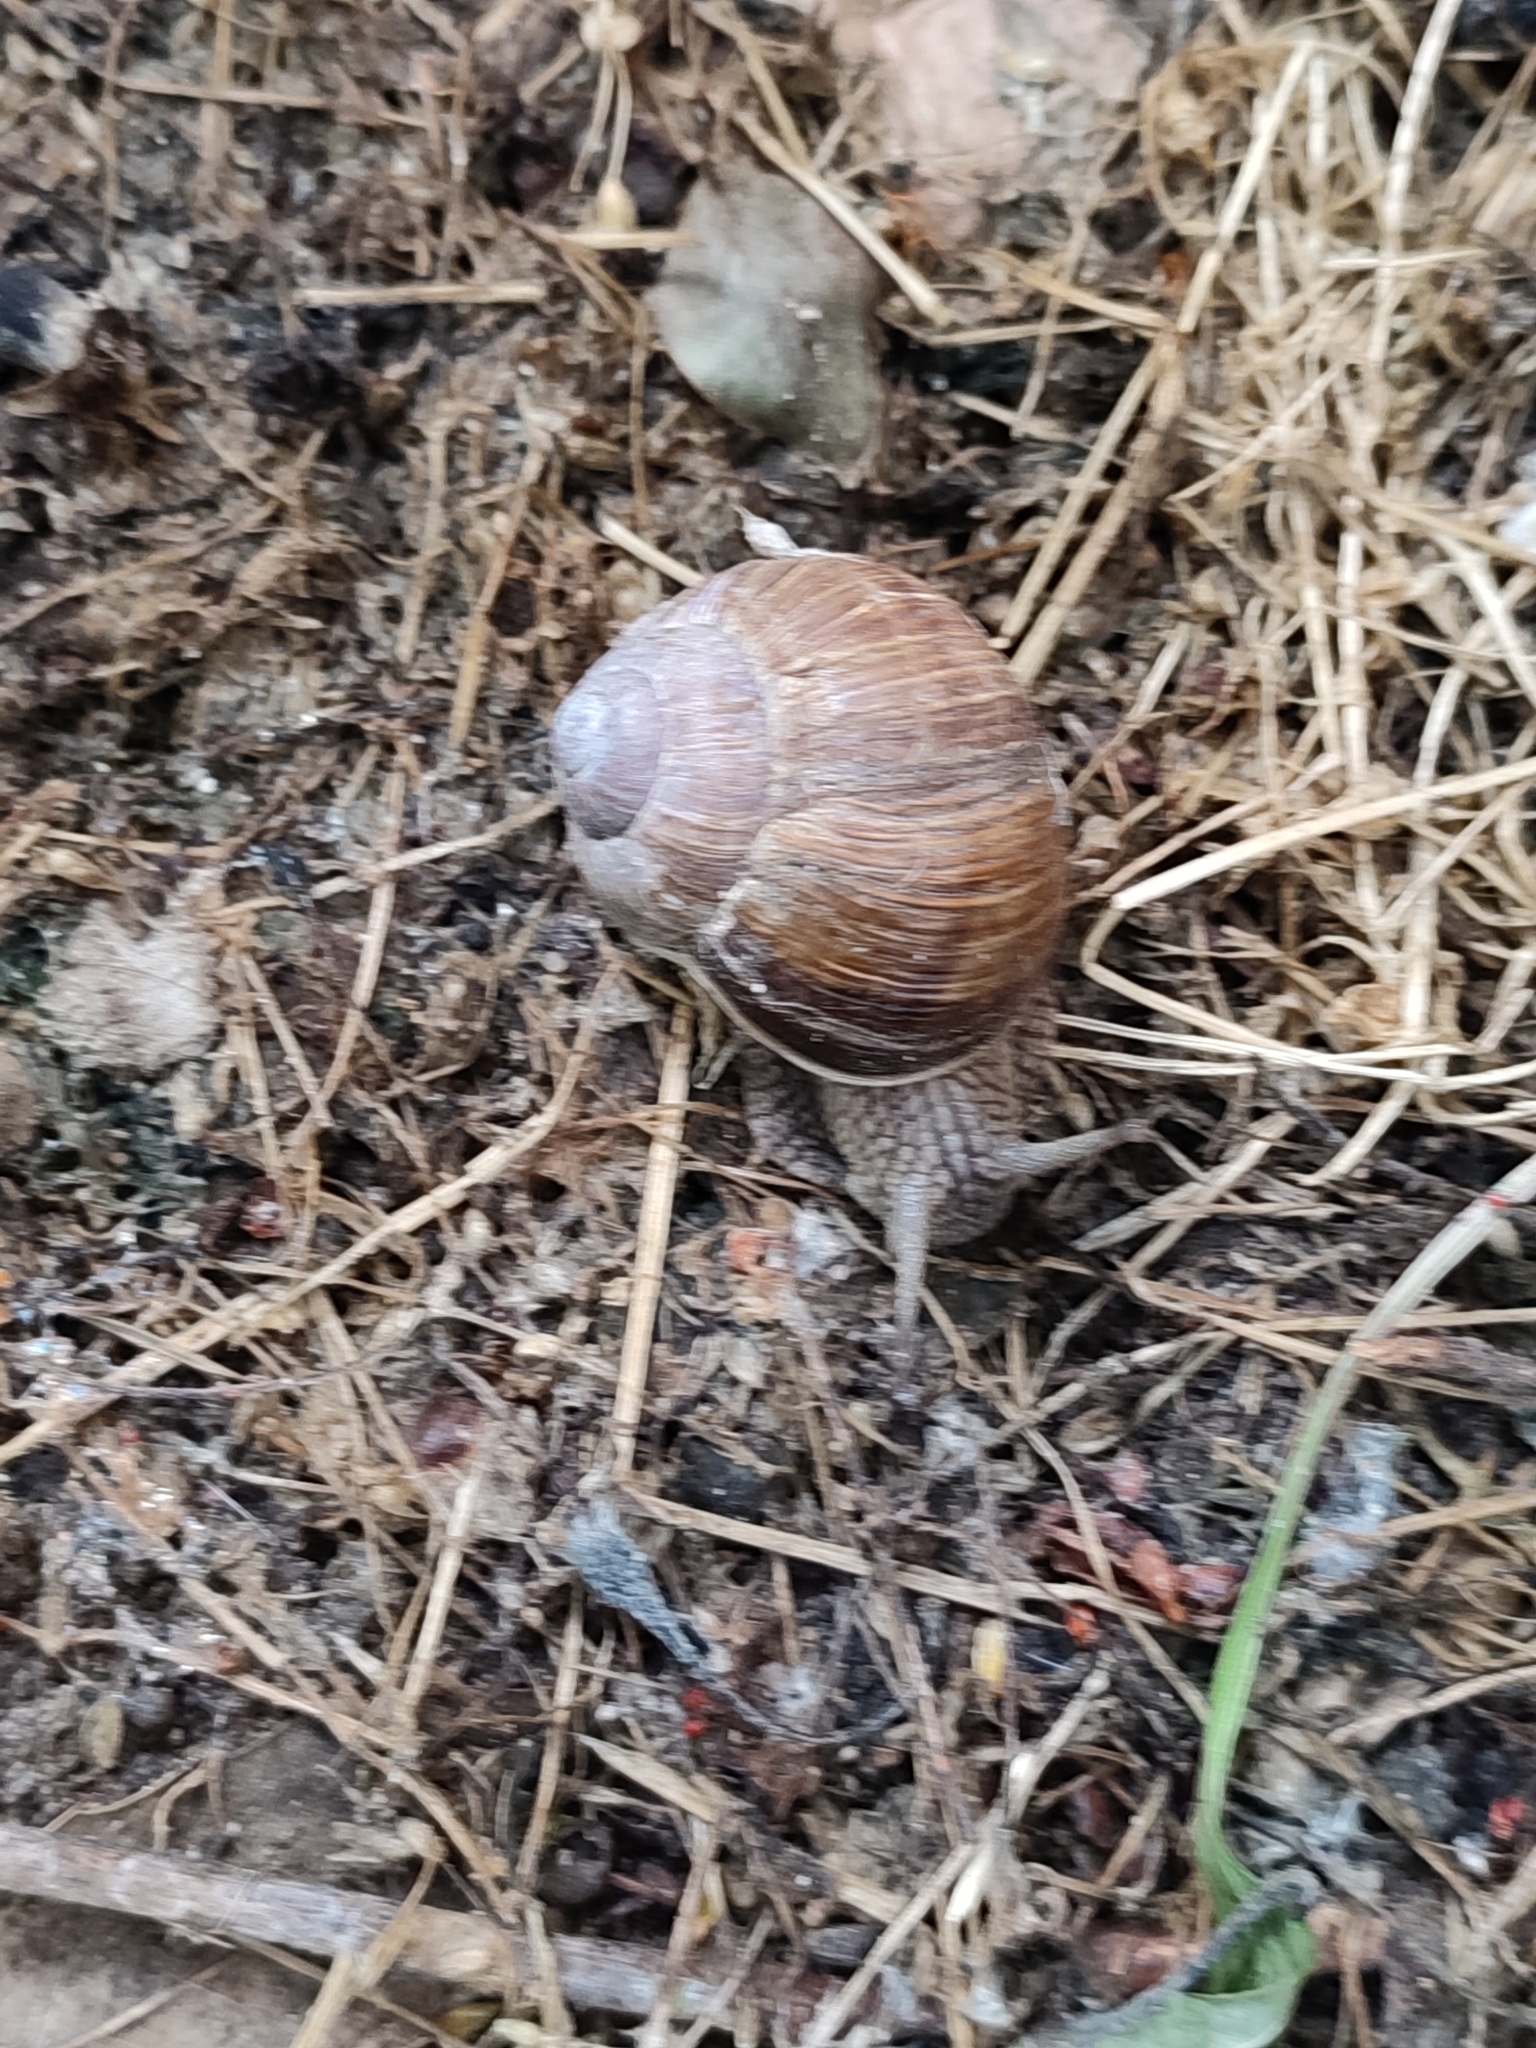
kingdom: Animalia
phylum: Mollusca
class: Gastropoda
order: Stylommatophora
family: Helicidae
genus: Helix
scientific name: Helix pomatia
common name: Roman snail
